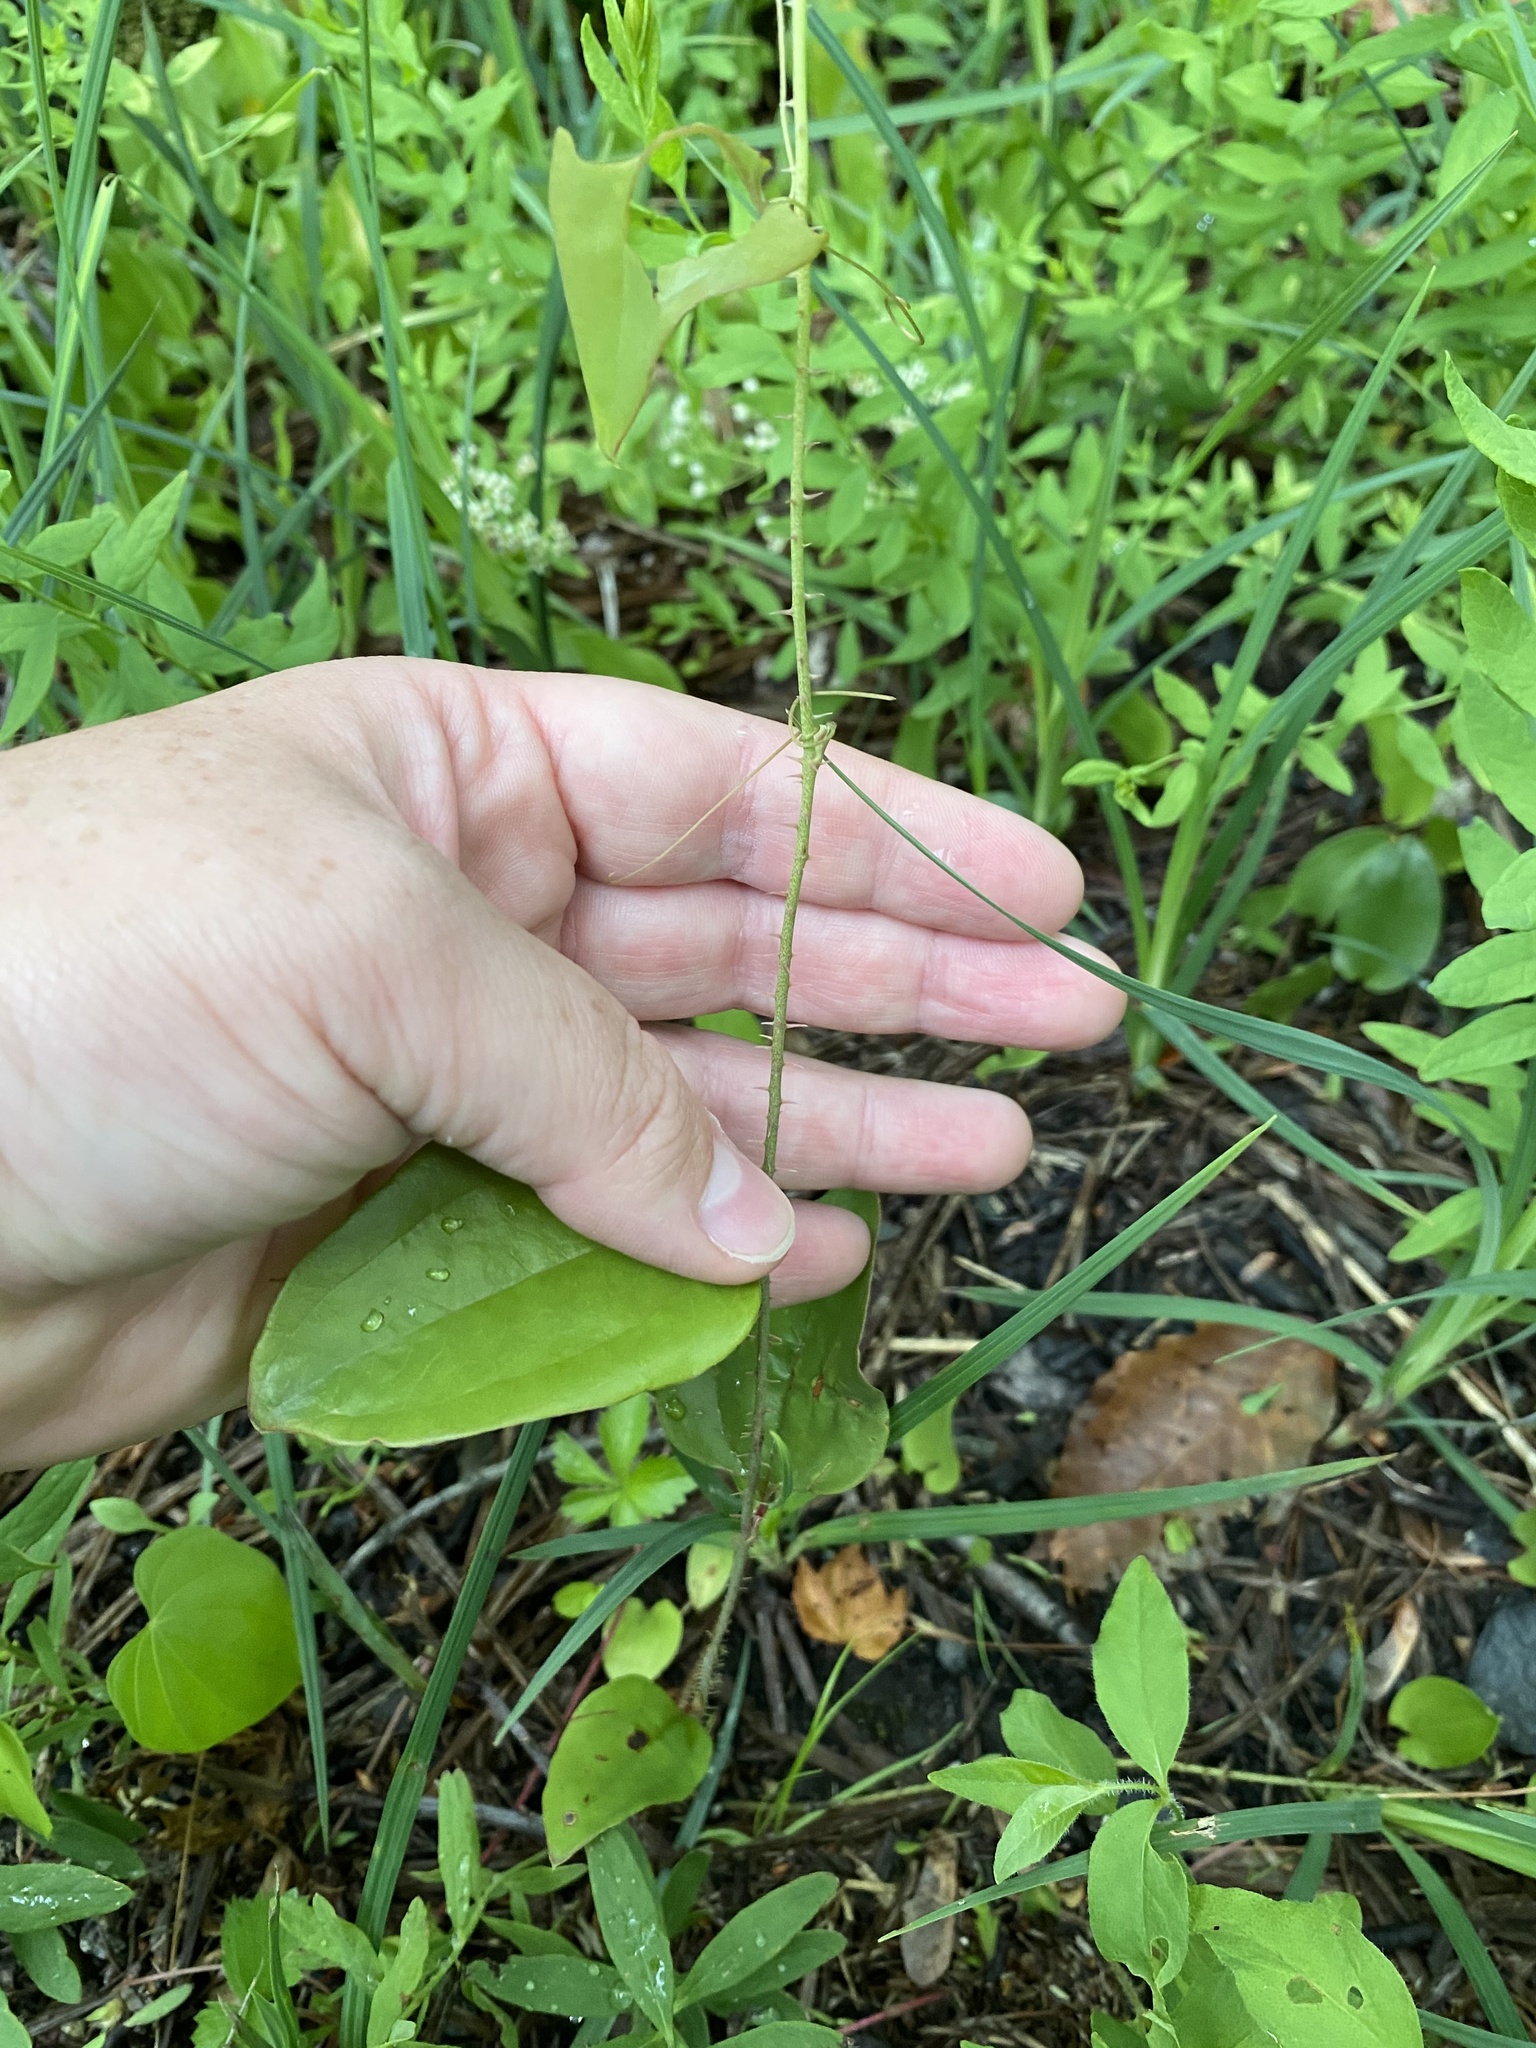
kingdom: Plantae
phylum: Tracheophyta
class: Liliopsida
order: Liliales
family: Smilacaceae
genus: Smilax
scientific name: Smilax glauca
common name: Cat greenbrier
